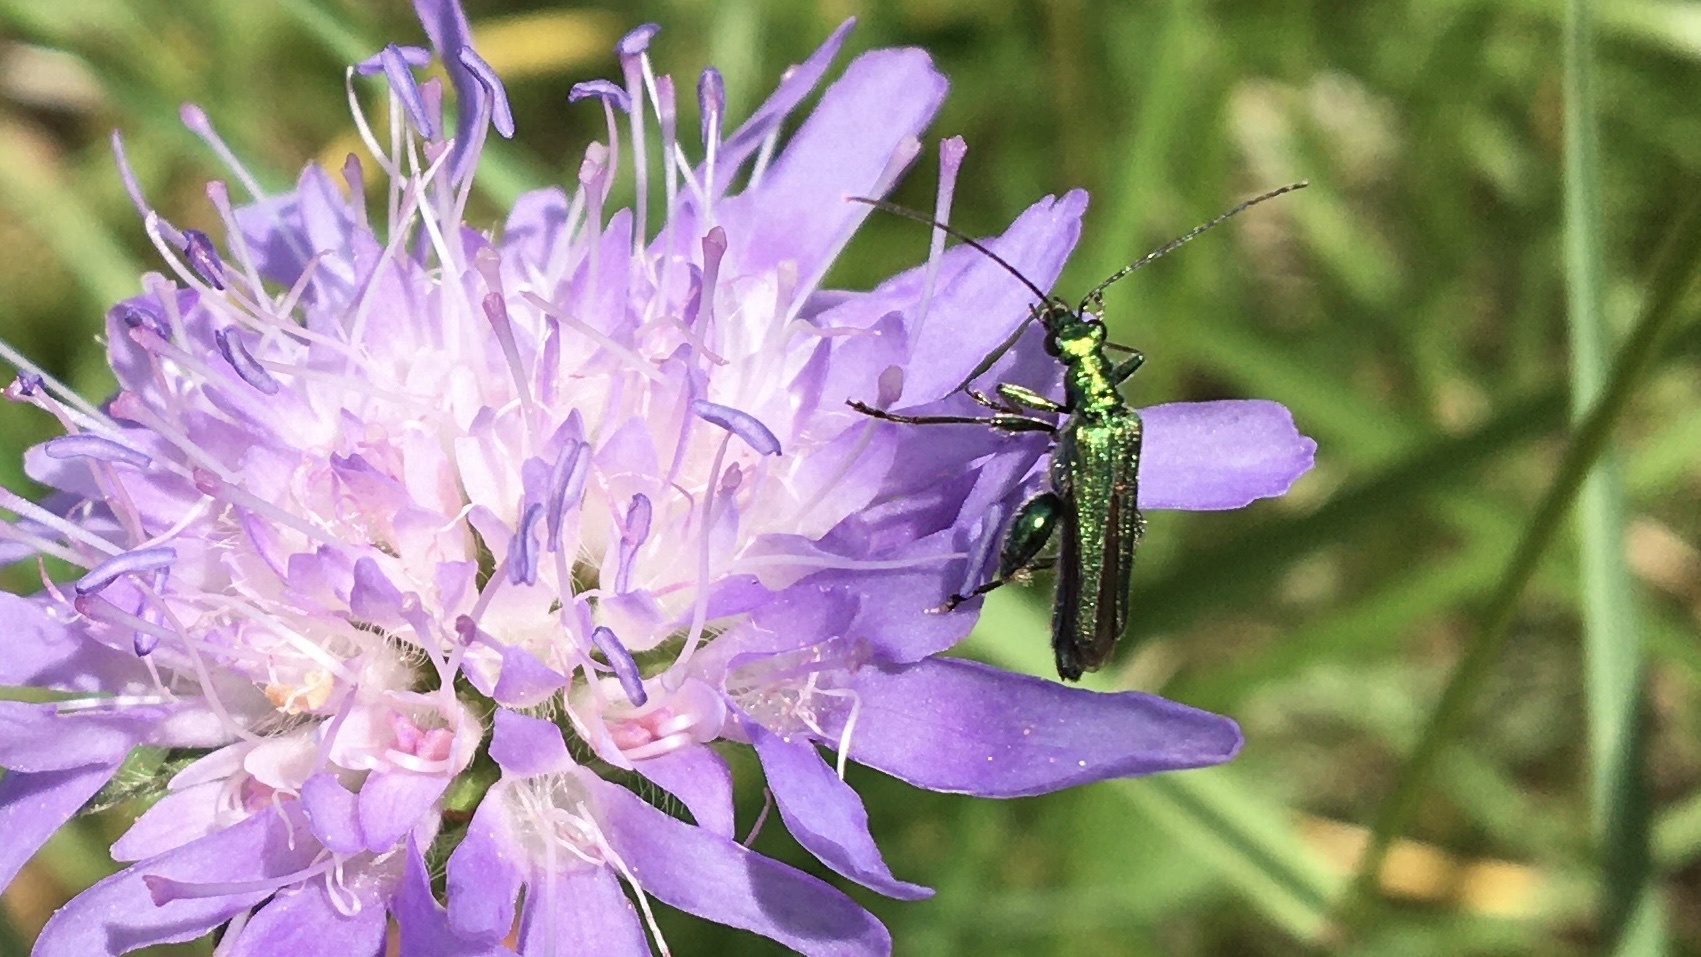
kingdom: Animalia
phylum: Arthropoda
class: Insecta
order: Coleoptera
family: Oedemeridae
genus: Oedemera
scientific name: Oedemera nobilis
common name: Swollen-thighed beetle
